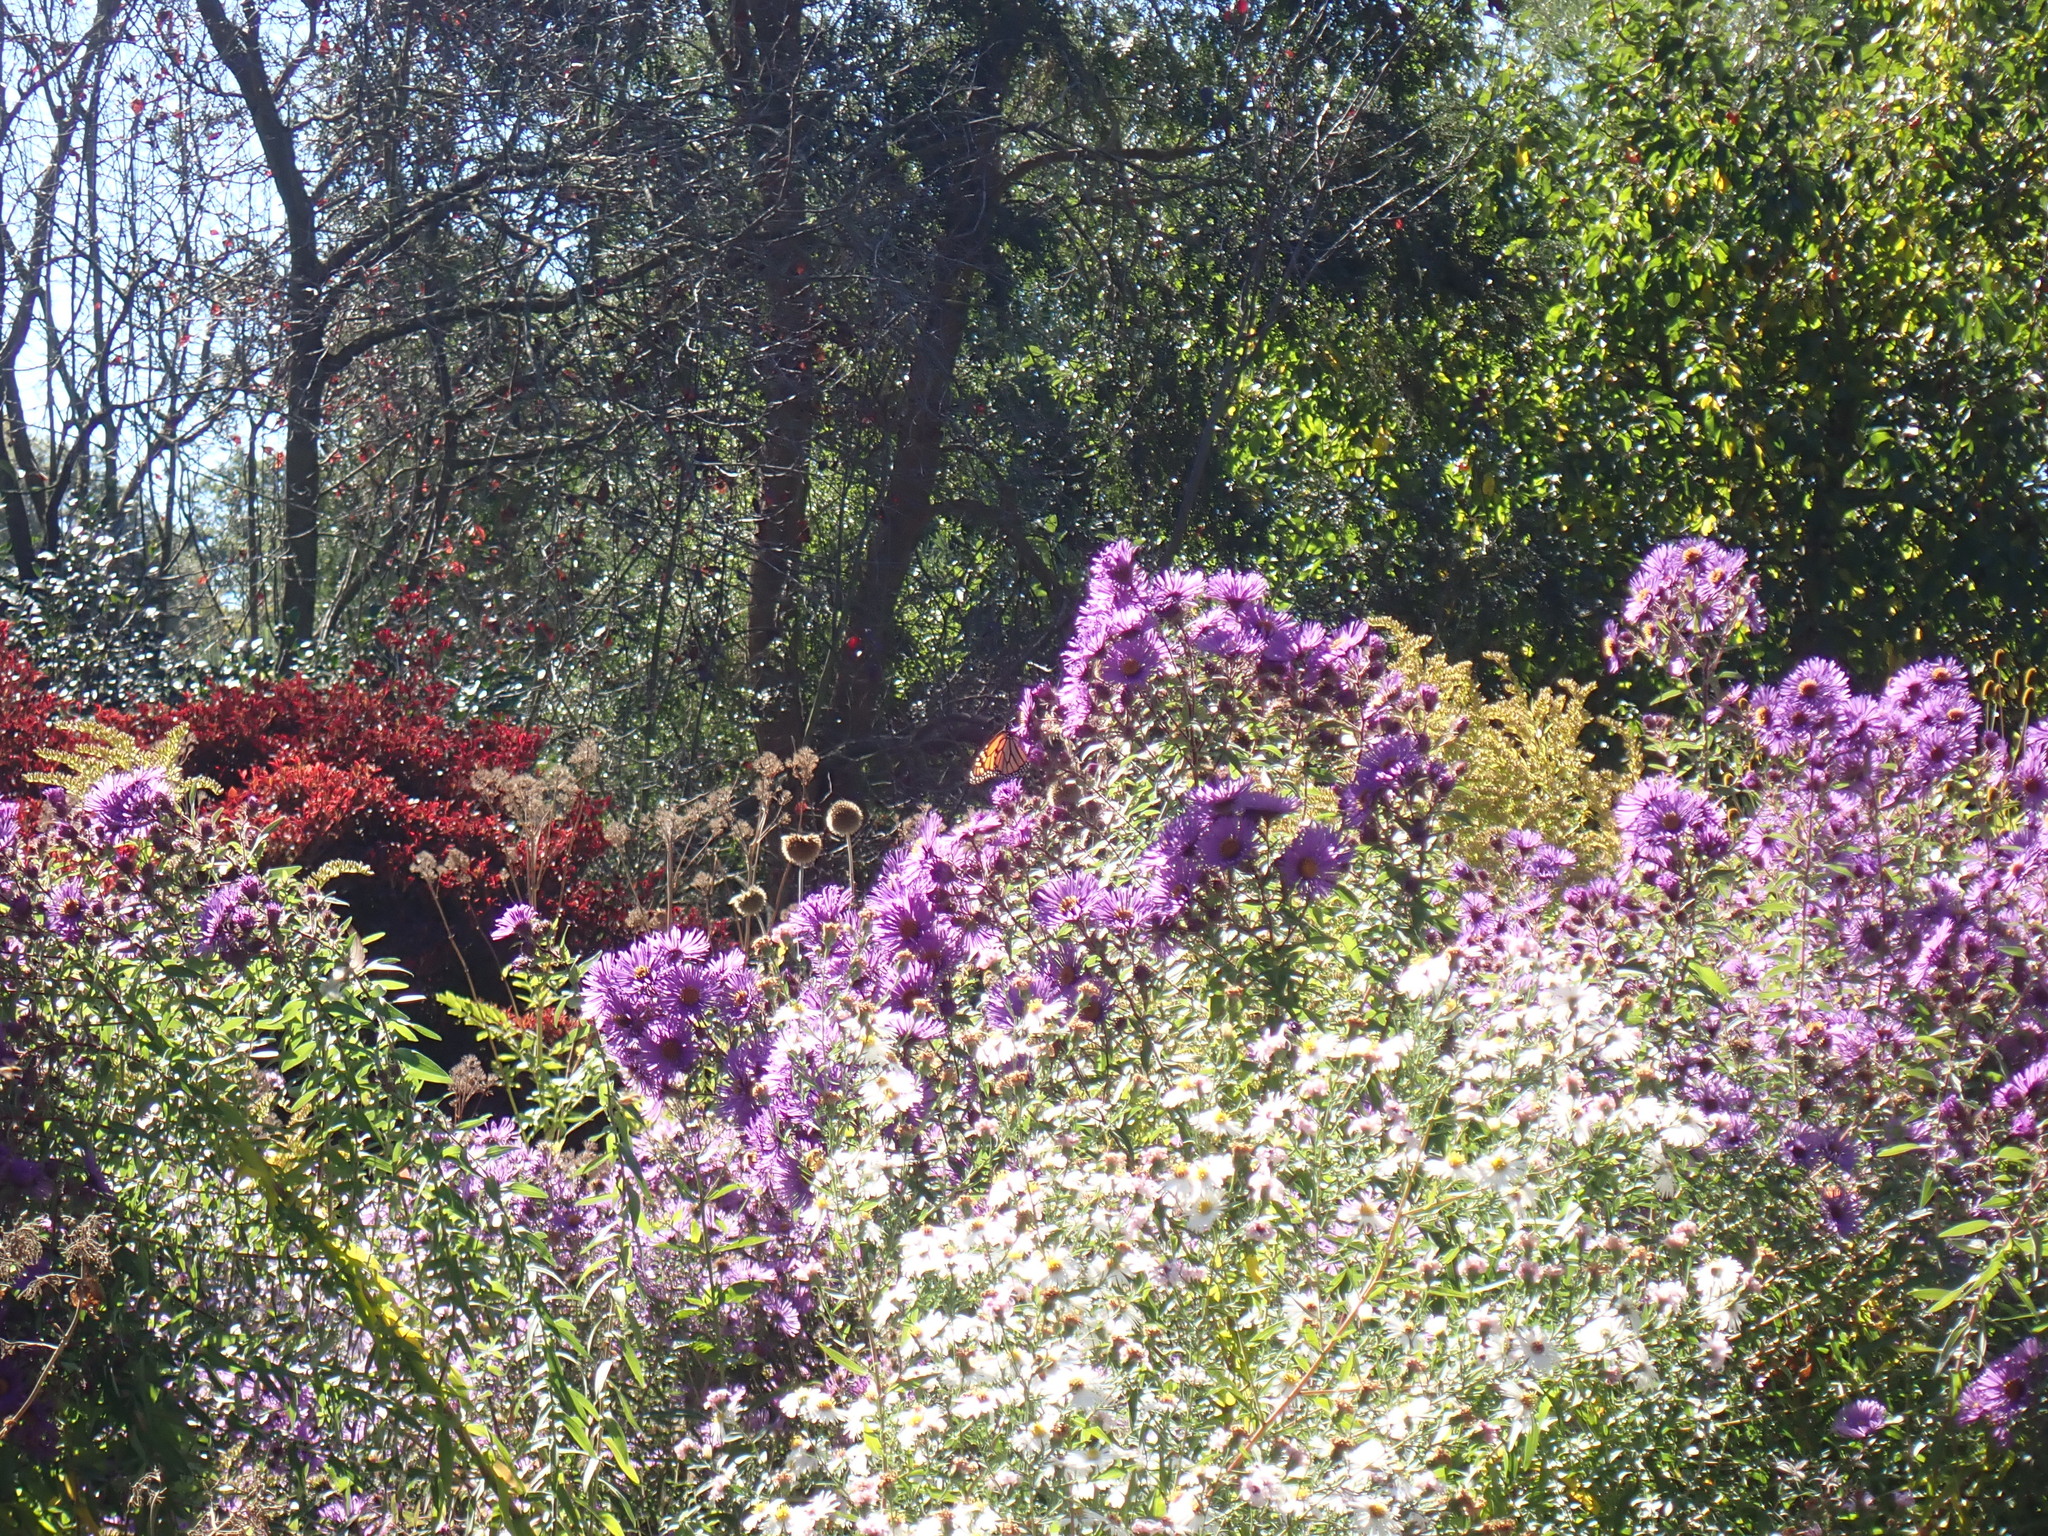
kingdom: Animalia
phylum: Arthropoda
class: Insecta
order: Lepidoptera
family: Nymphalidae
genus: Danaus
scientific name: Danaus plexippus
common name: Monarch
